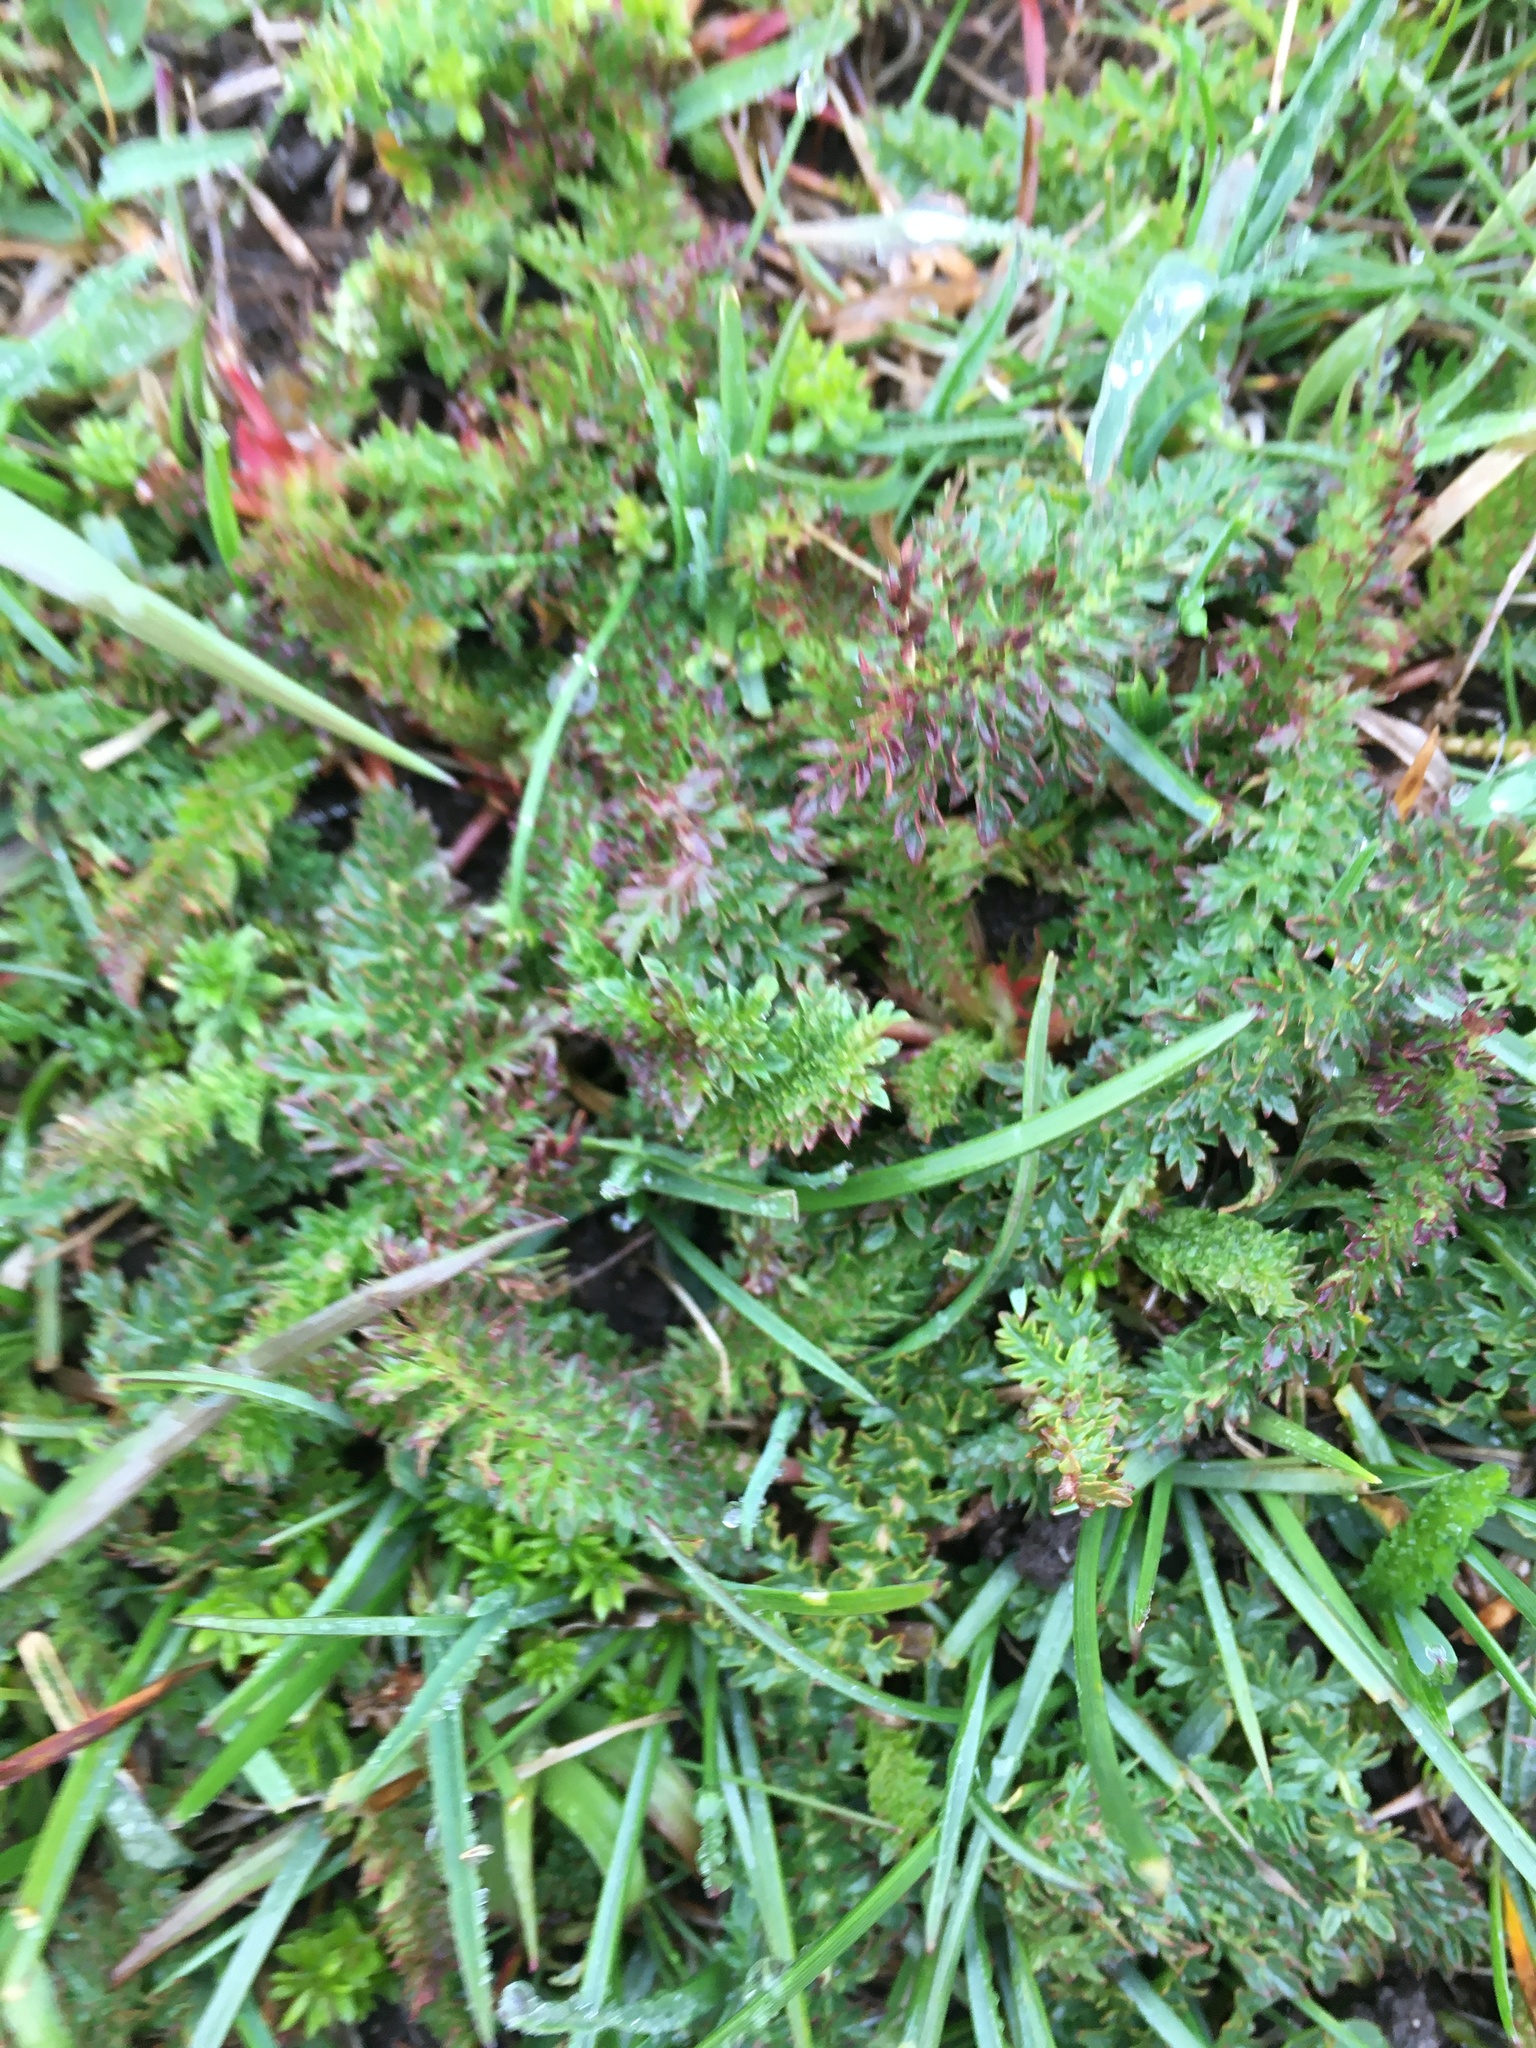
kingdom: Plantae
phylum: Tracheophyta
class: Magnoliopsida
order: Rosales
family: Rosaceae
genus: Filipendula
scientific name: Filipendula vulgaris
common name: Dropwort
